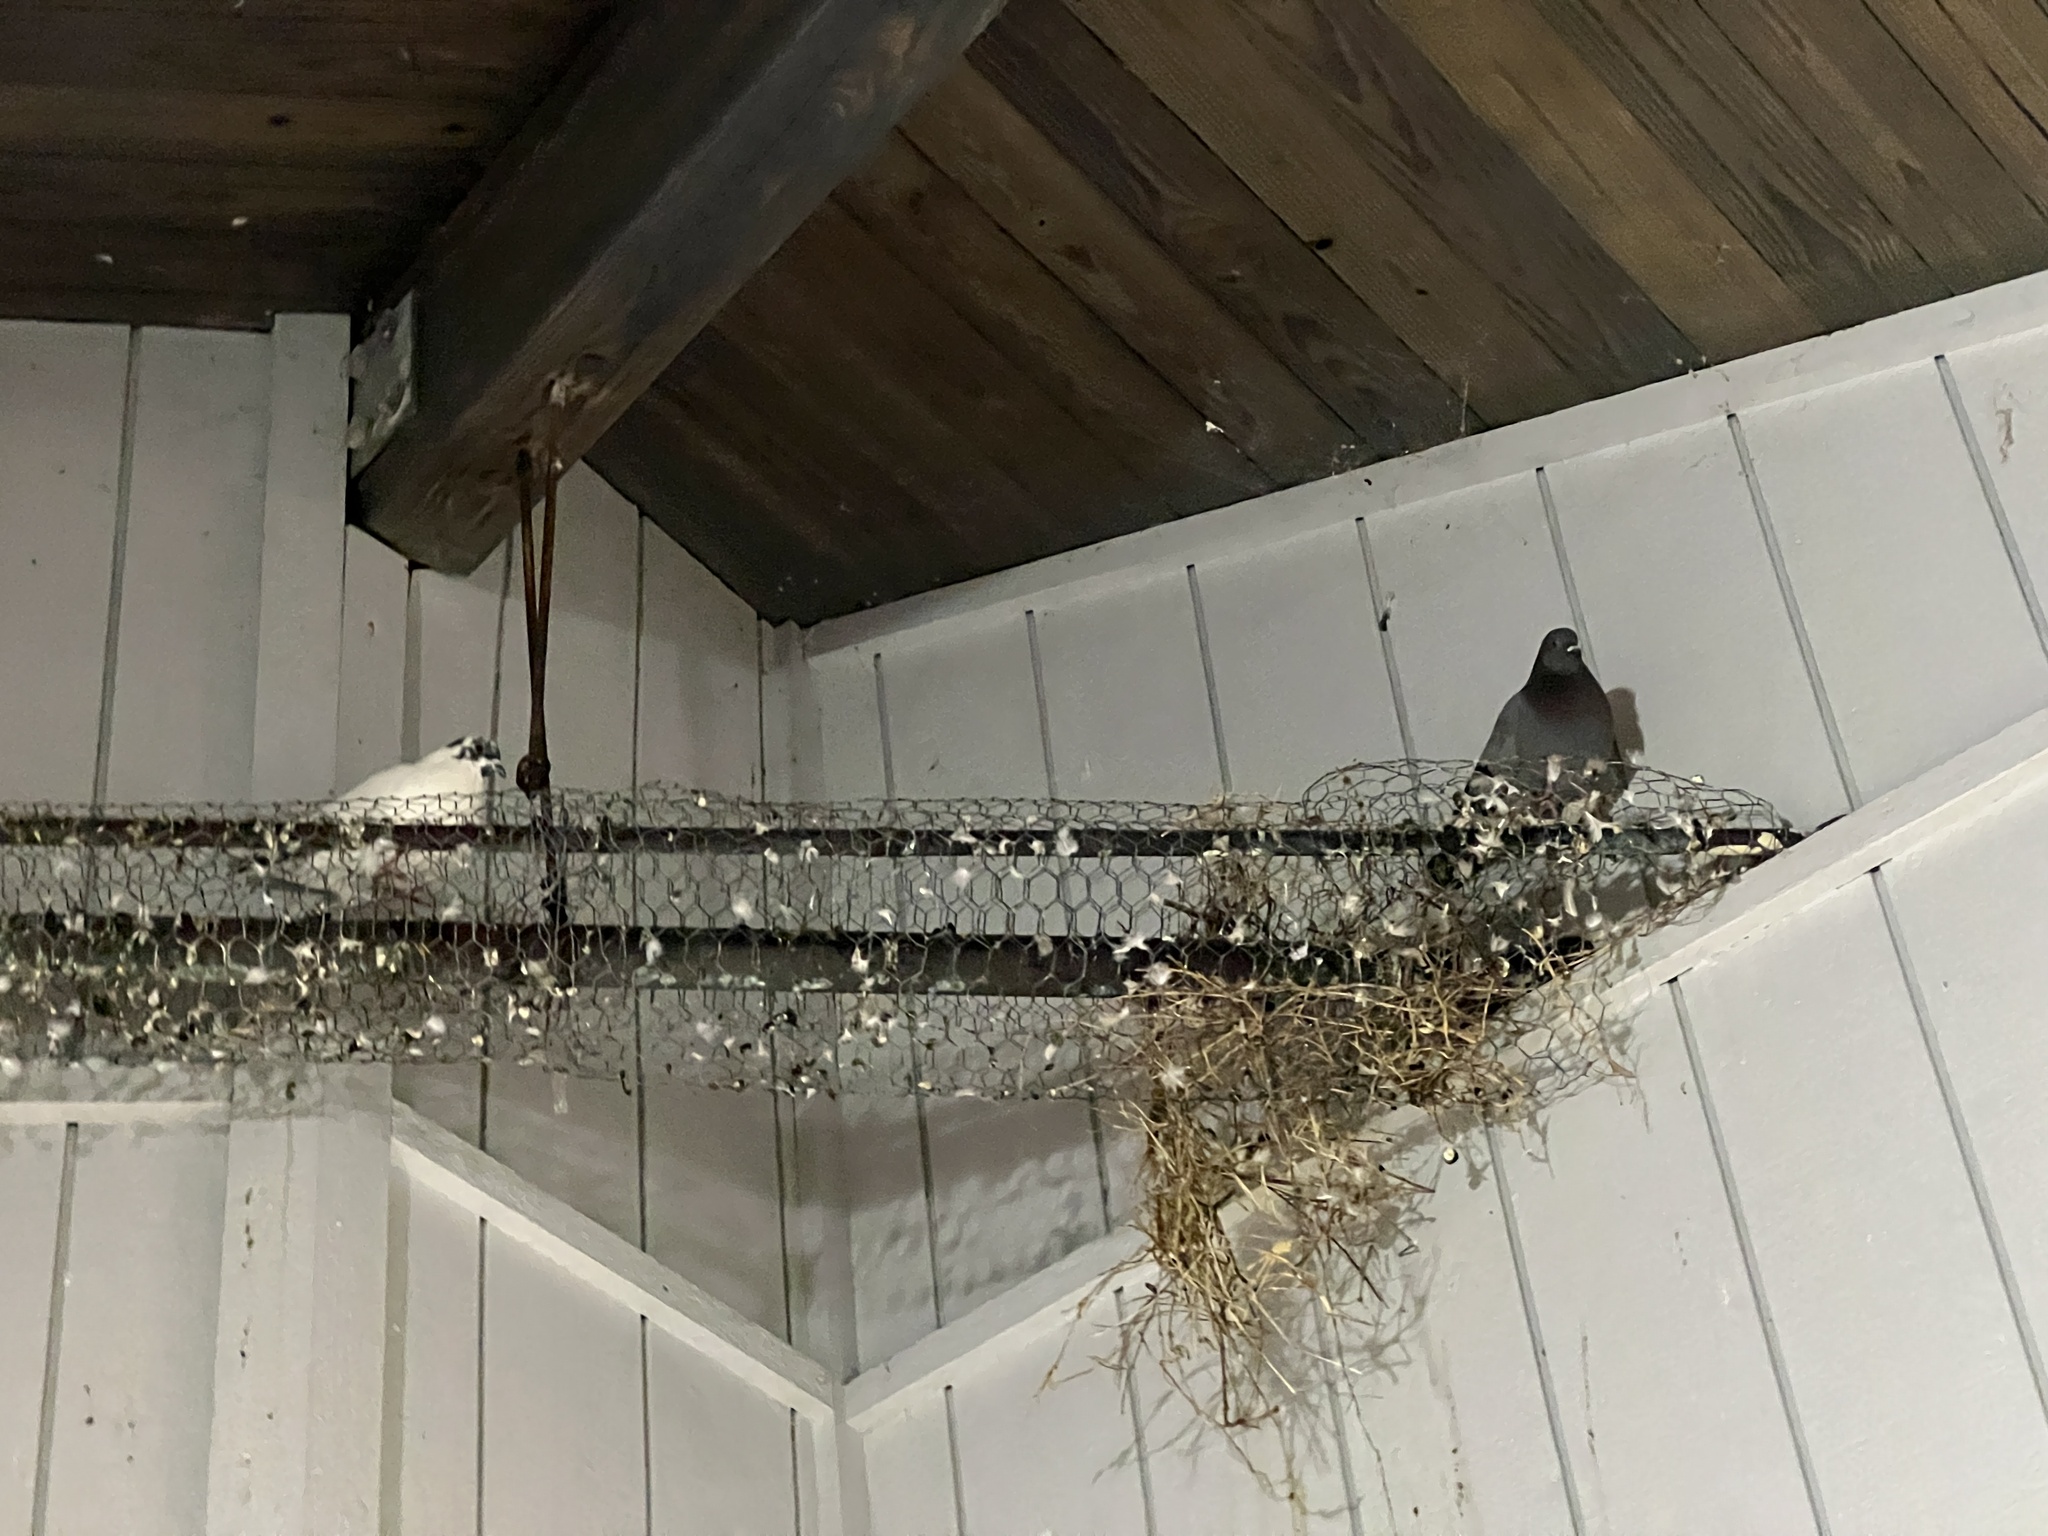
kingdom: Animalia
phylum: Chordata
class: Aves
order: Columbiformes
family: Columbidae
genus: Columba
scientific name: Columba livia
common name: Rock pigeon
